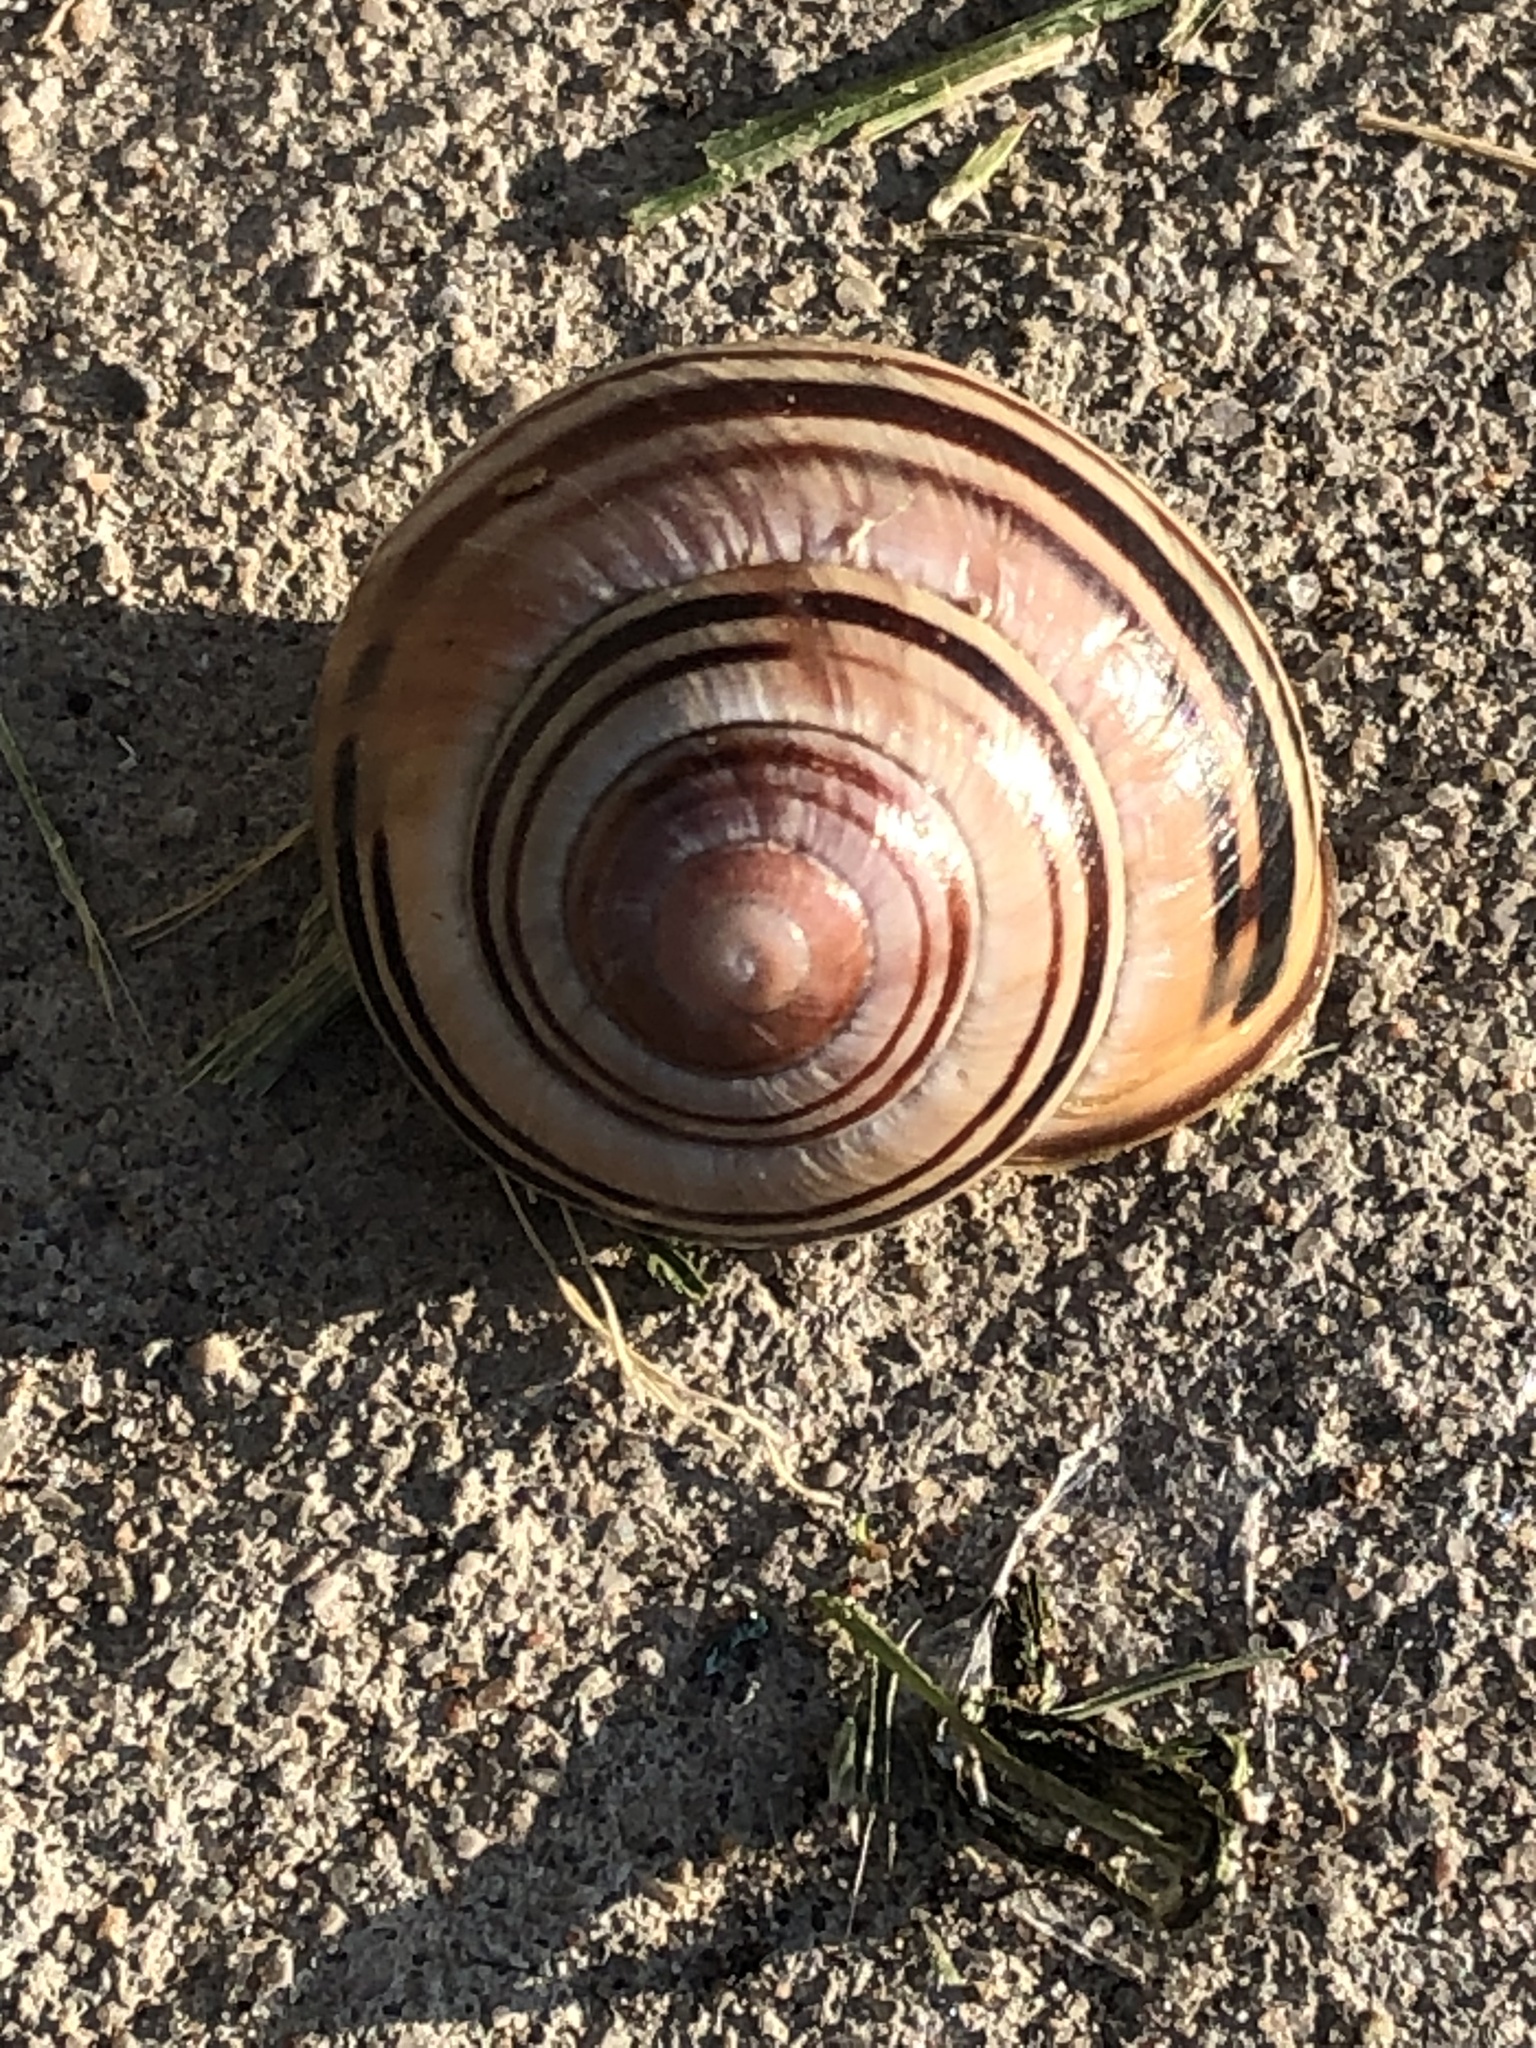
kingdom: Animalia
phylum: Mollusca
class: Gastropoda
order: Stylommatophora
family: Helicidae
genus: Cepaea
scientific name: Cepaea nemoralis
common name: Grovesnail
